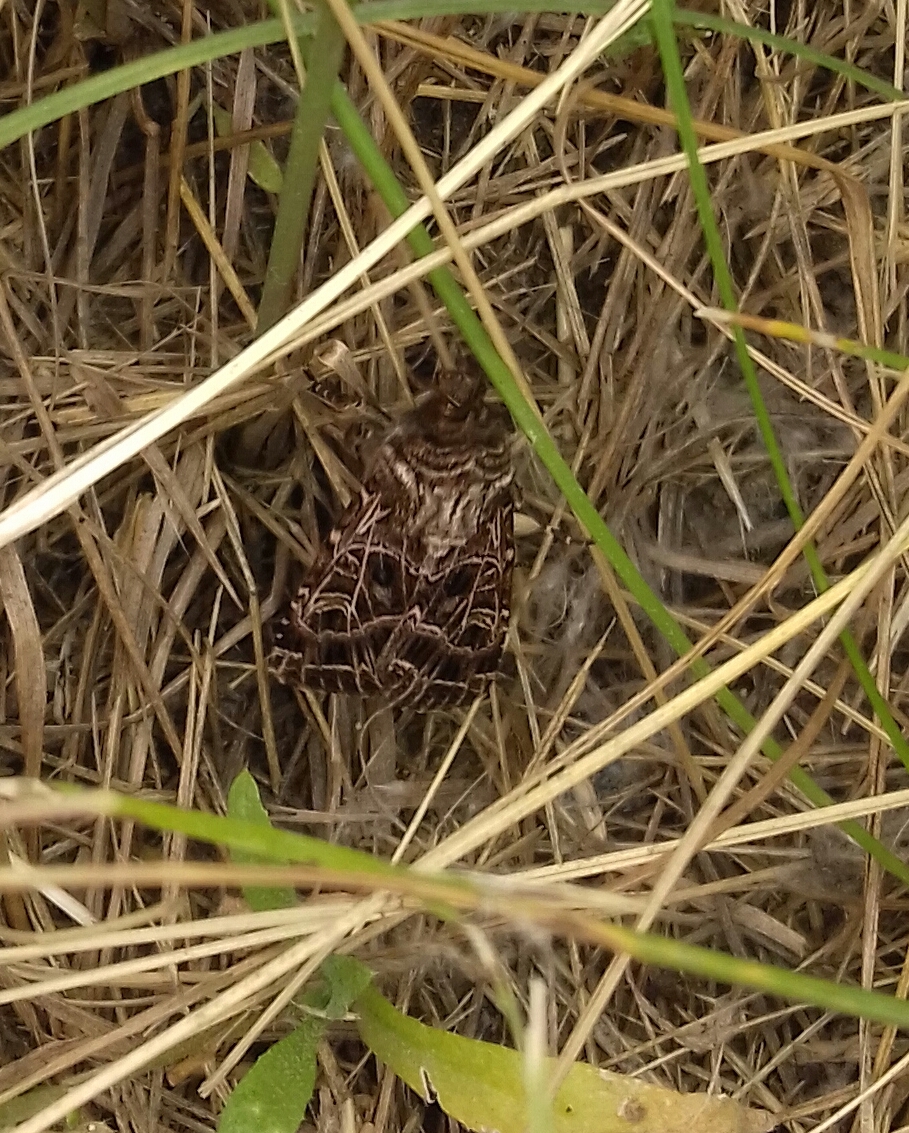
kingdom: Animalia
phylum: Arthropoda
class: Insecta
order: Lepidoptera
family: Noctuidae
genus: Sideridis
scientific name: Sideridis reticulata
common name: Bordered gothic
